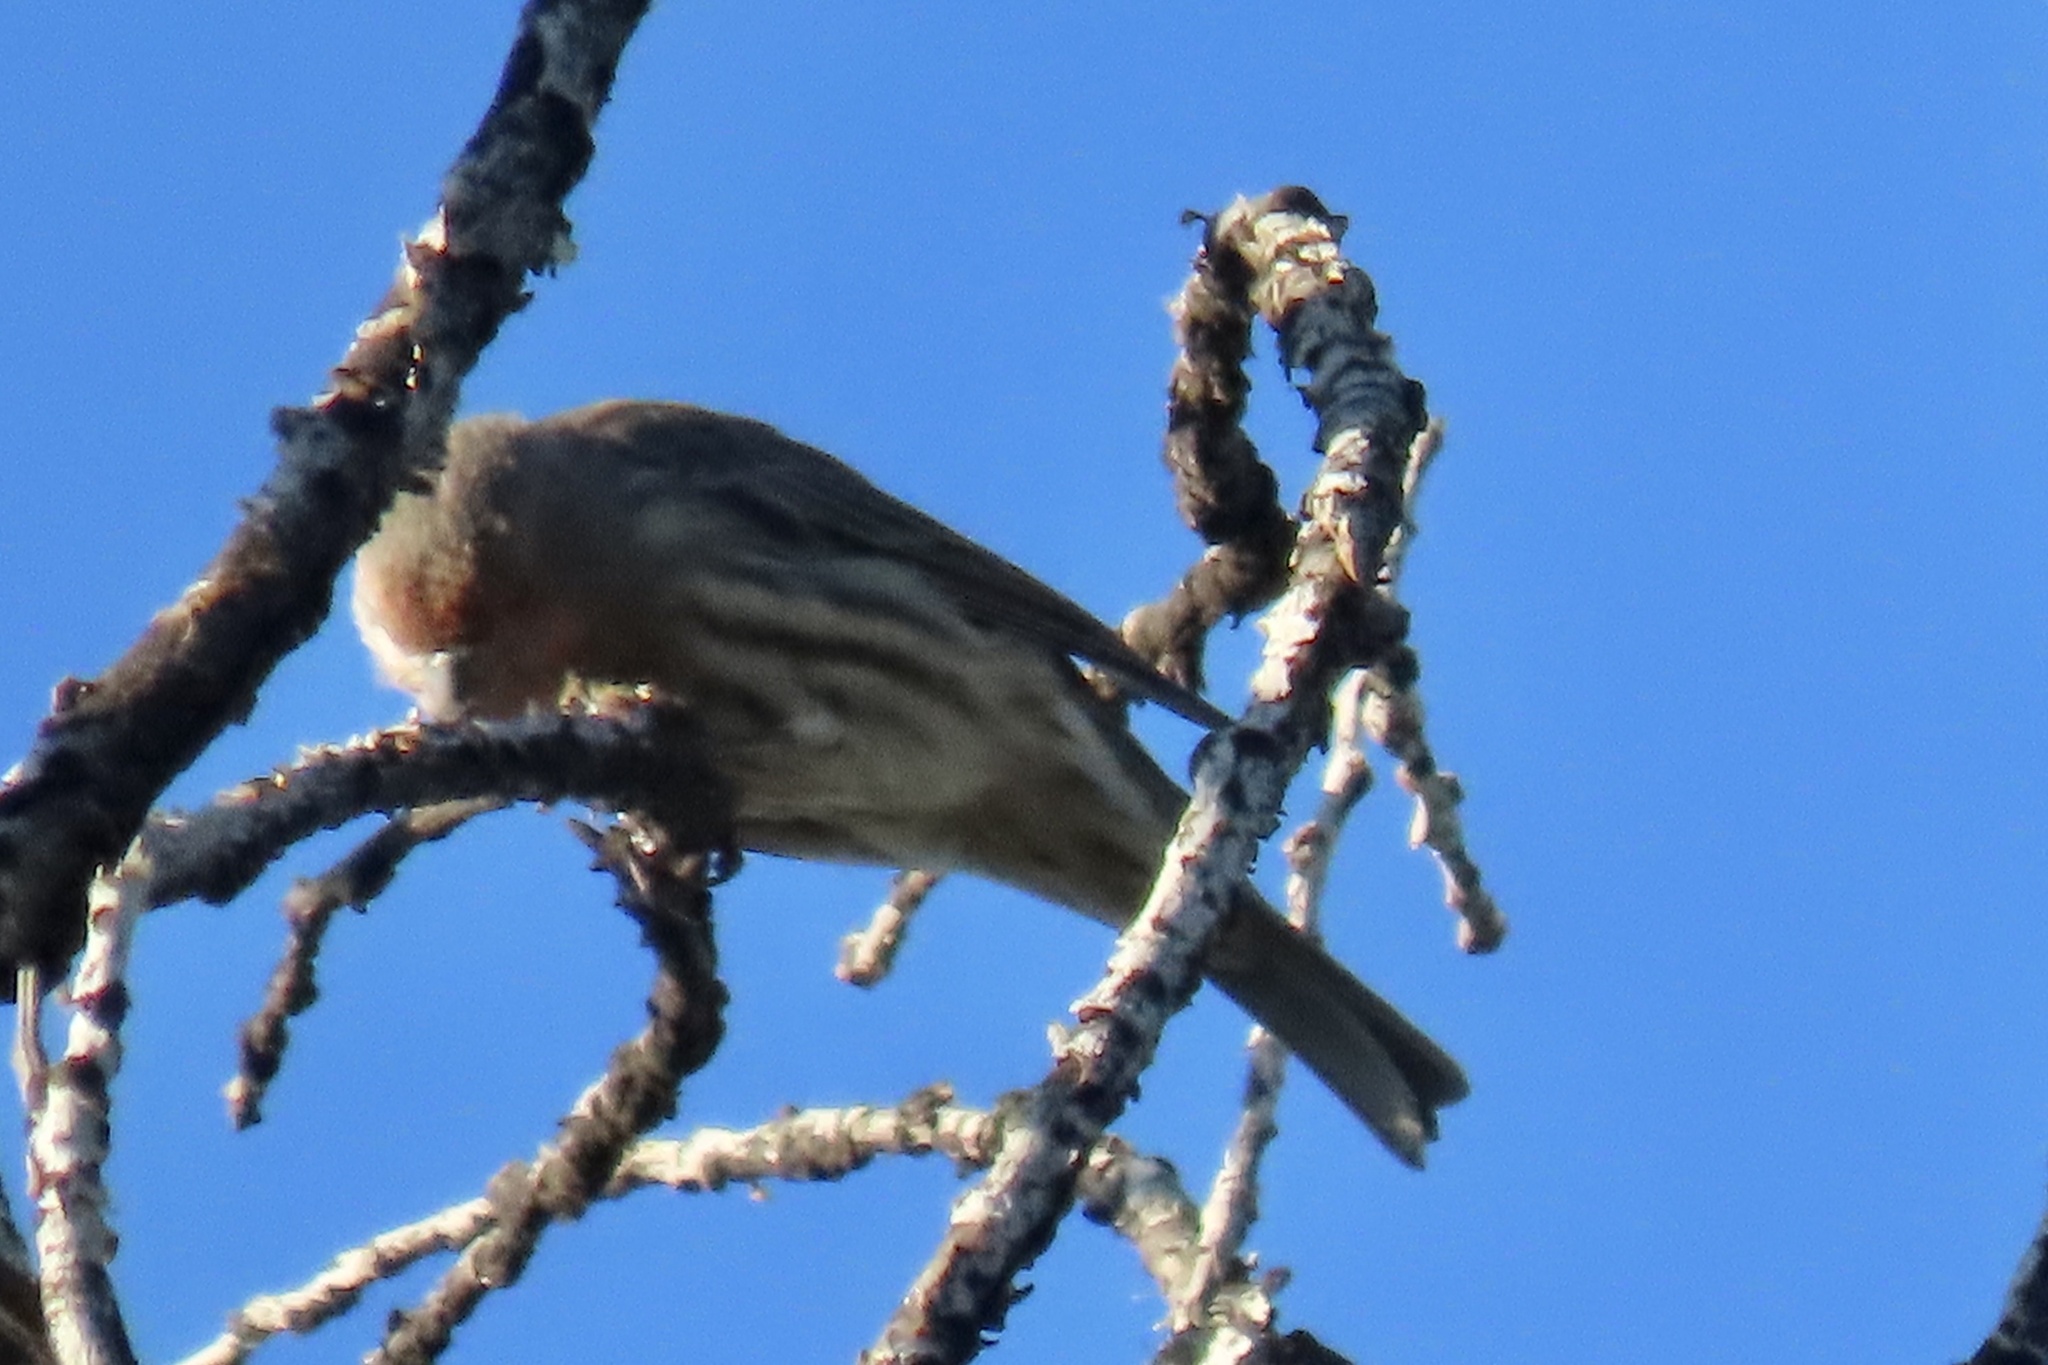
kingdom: Animalia
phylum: Chordata
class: Aves
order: Passeriformes
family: Fringillidae
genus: Haemorhous
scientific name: Haemorhous mexicanus
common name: House finch
